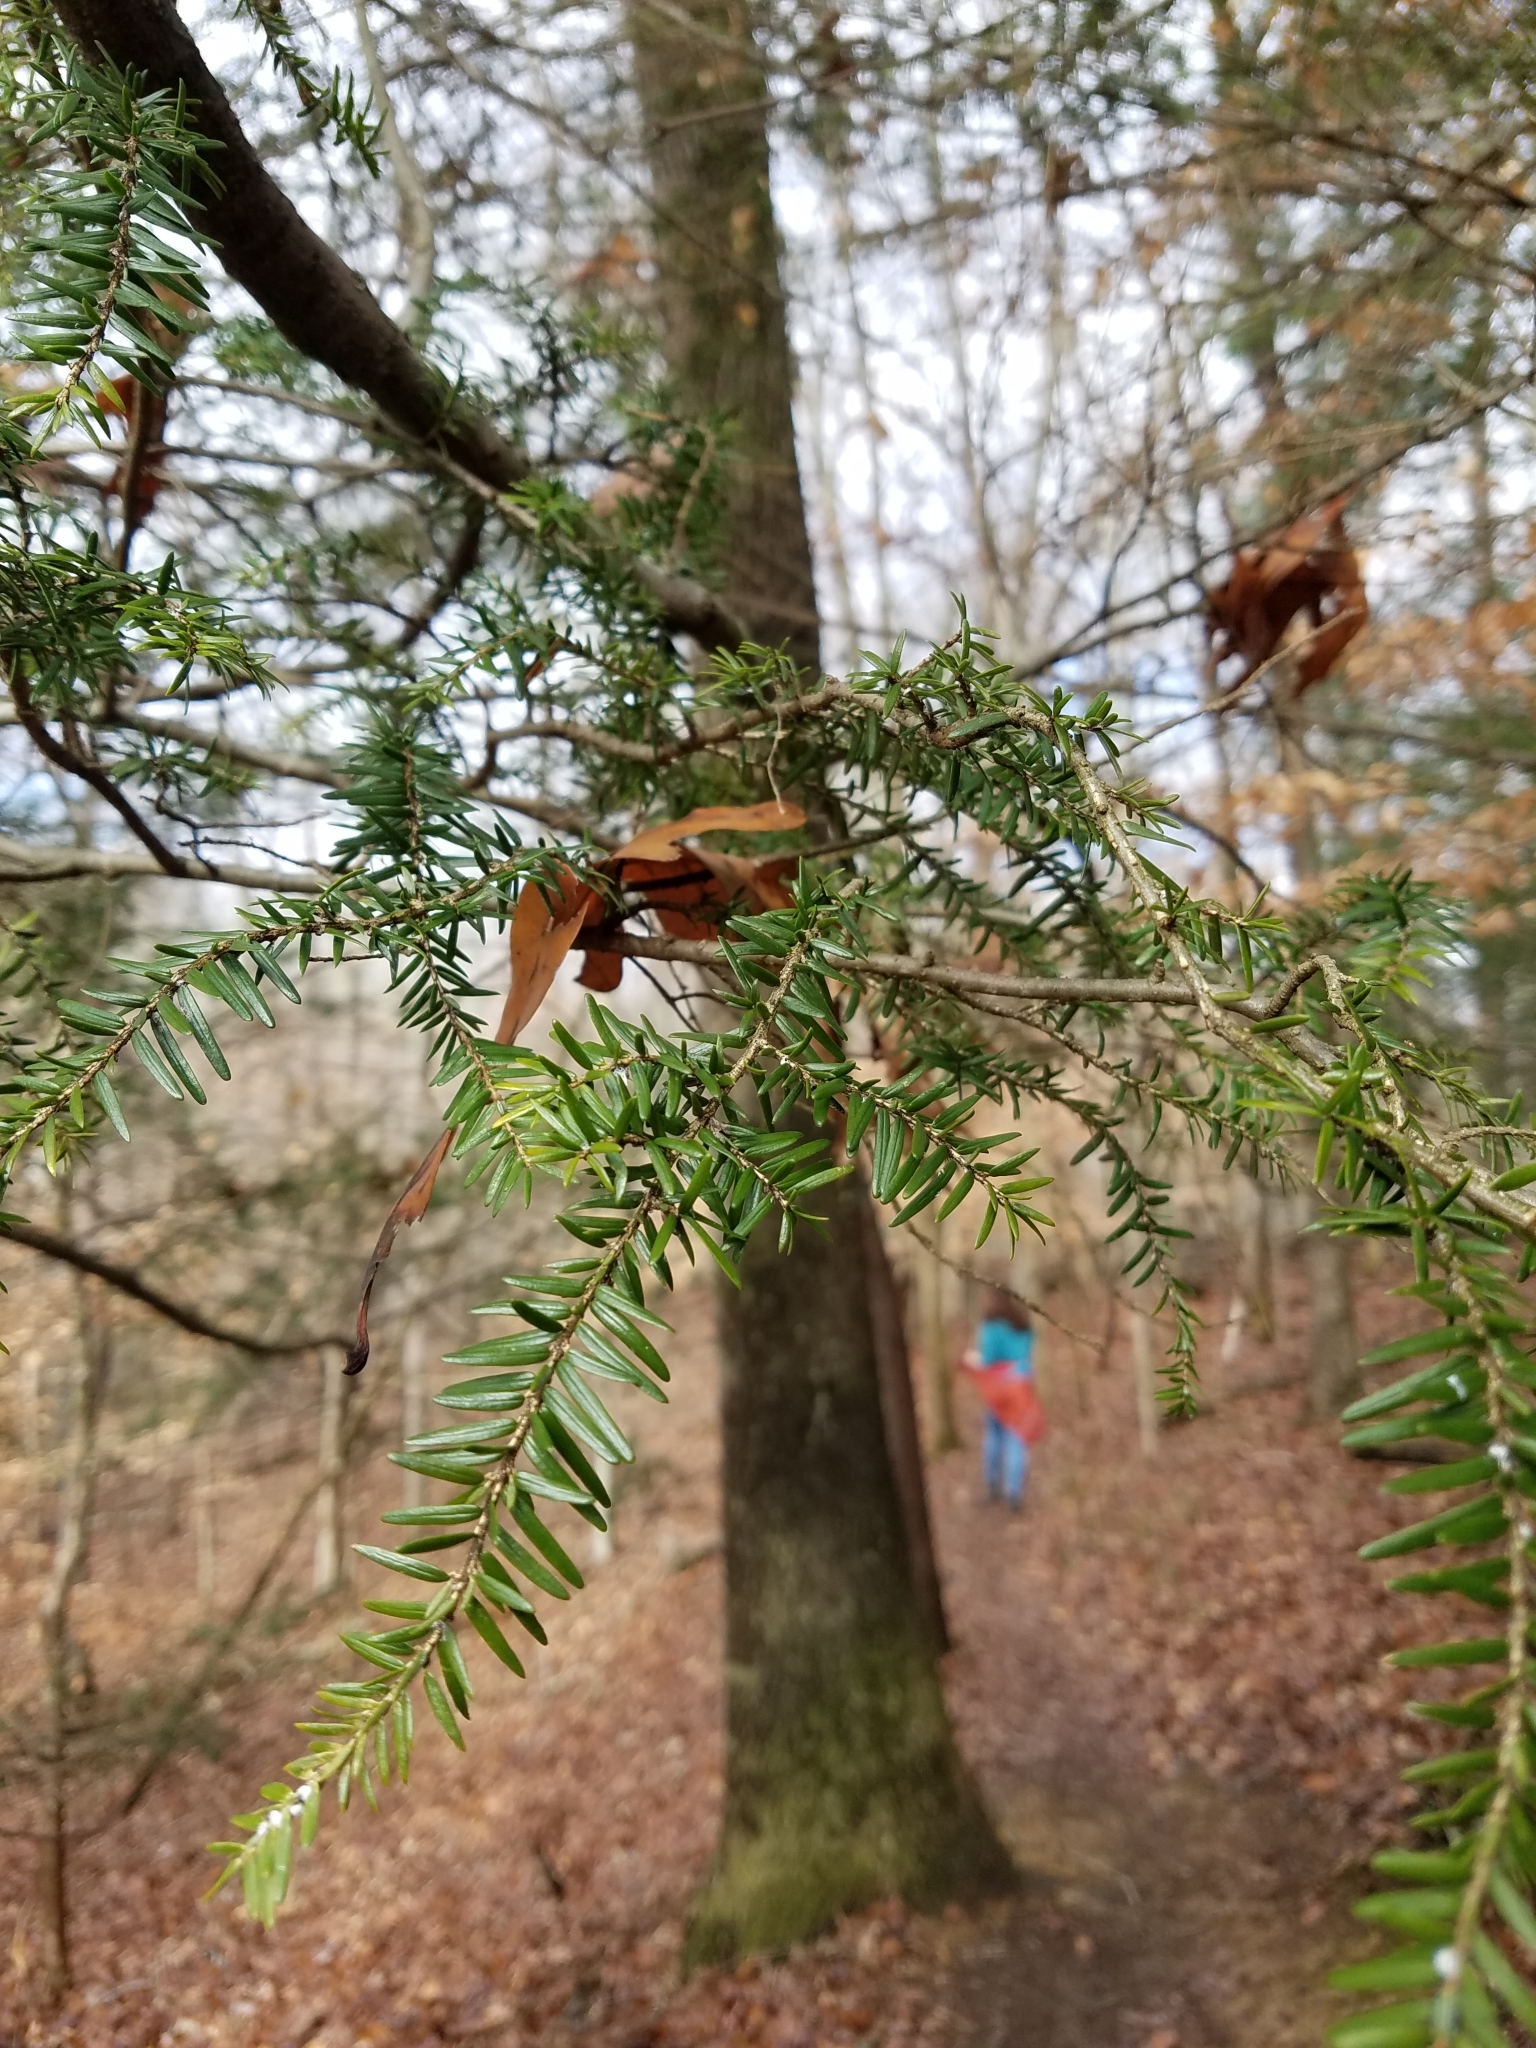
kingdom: Plantae
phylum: Tracheophyta
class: Pinopsida
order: Pinales
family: Pinaceae
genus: Tsuga
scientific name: Tsuga canadensis
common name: Eastern hemlock
